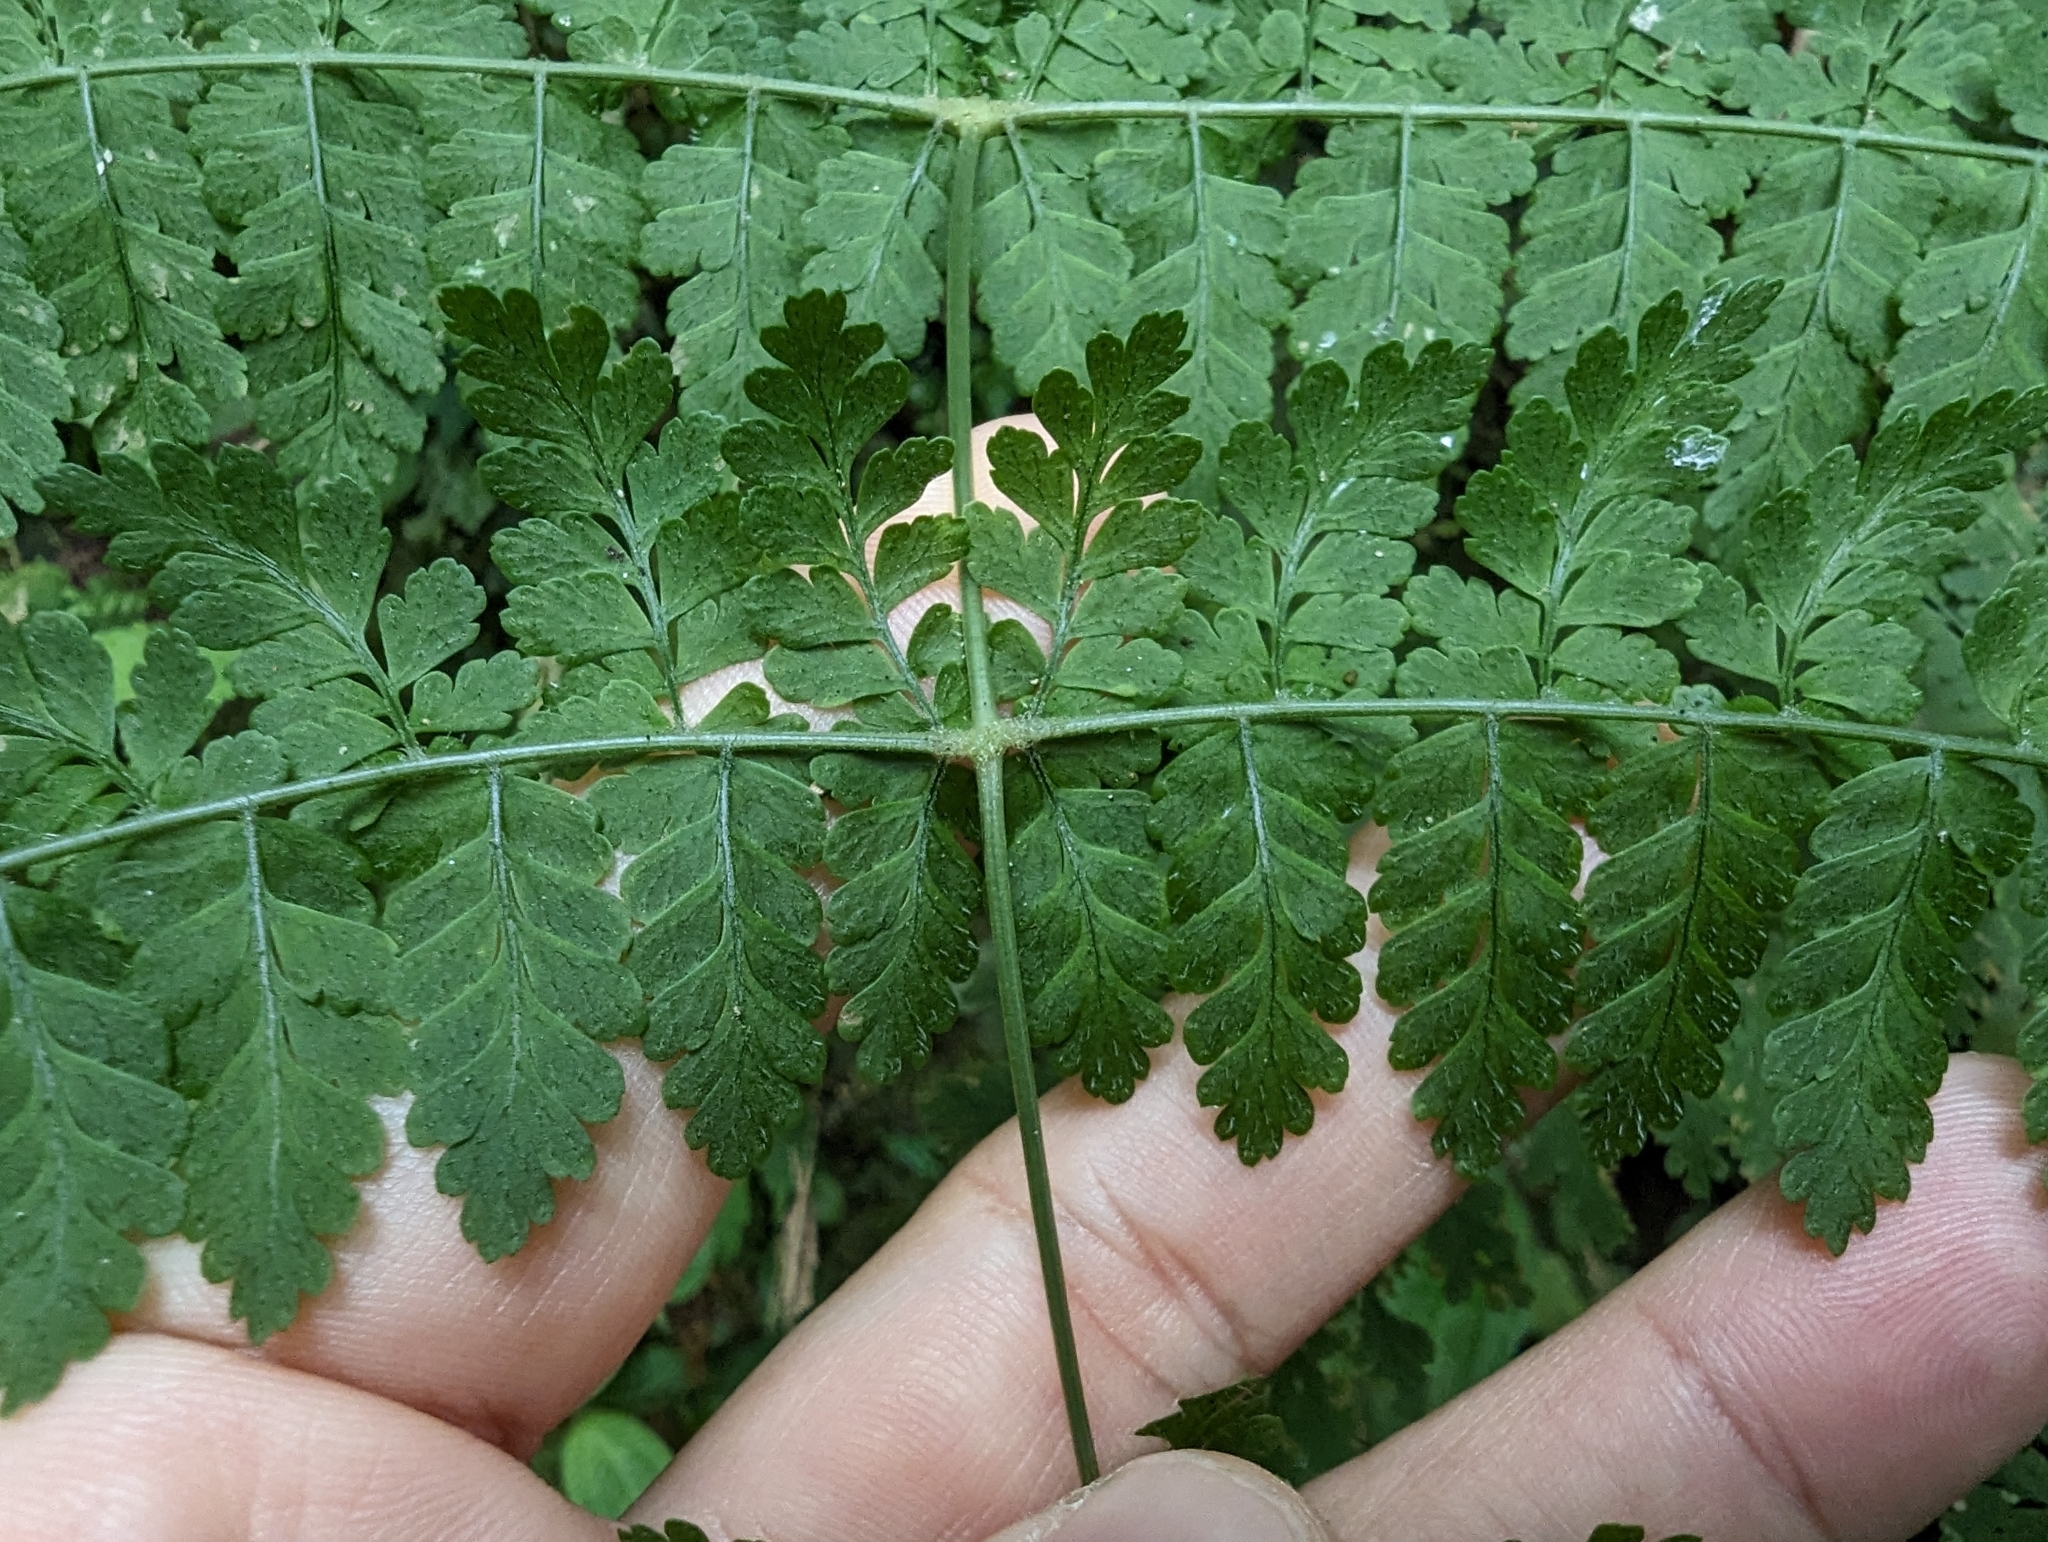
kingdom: Plantae
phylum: Tracheophyta
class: Polypodiopsida
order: Polypodiales
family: Dryopteridaceae
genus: Dryopteris
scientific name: Dryopteris paleolata
